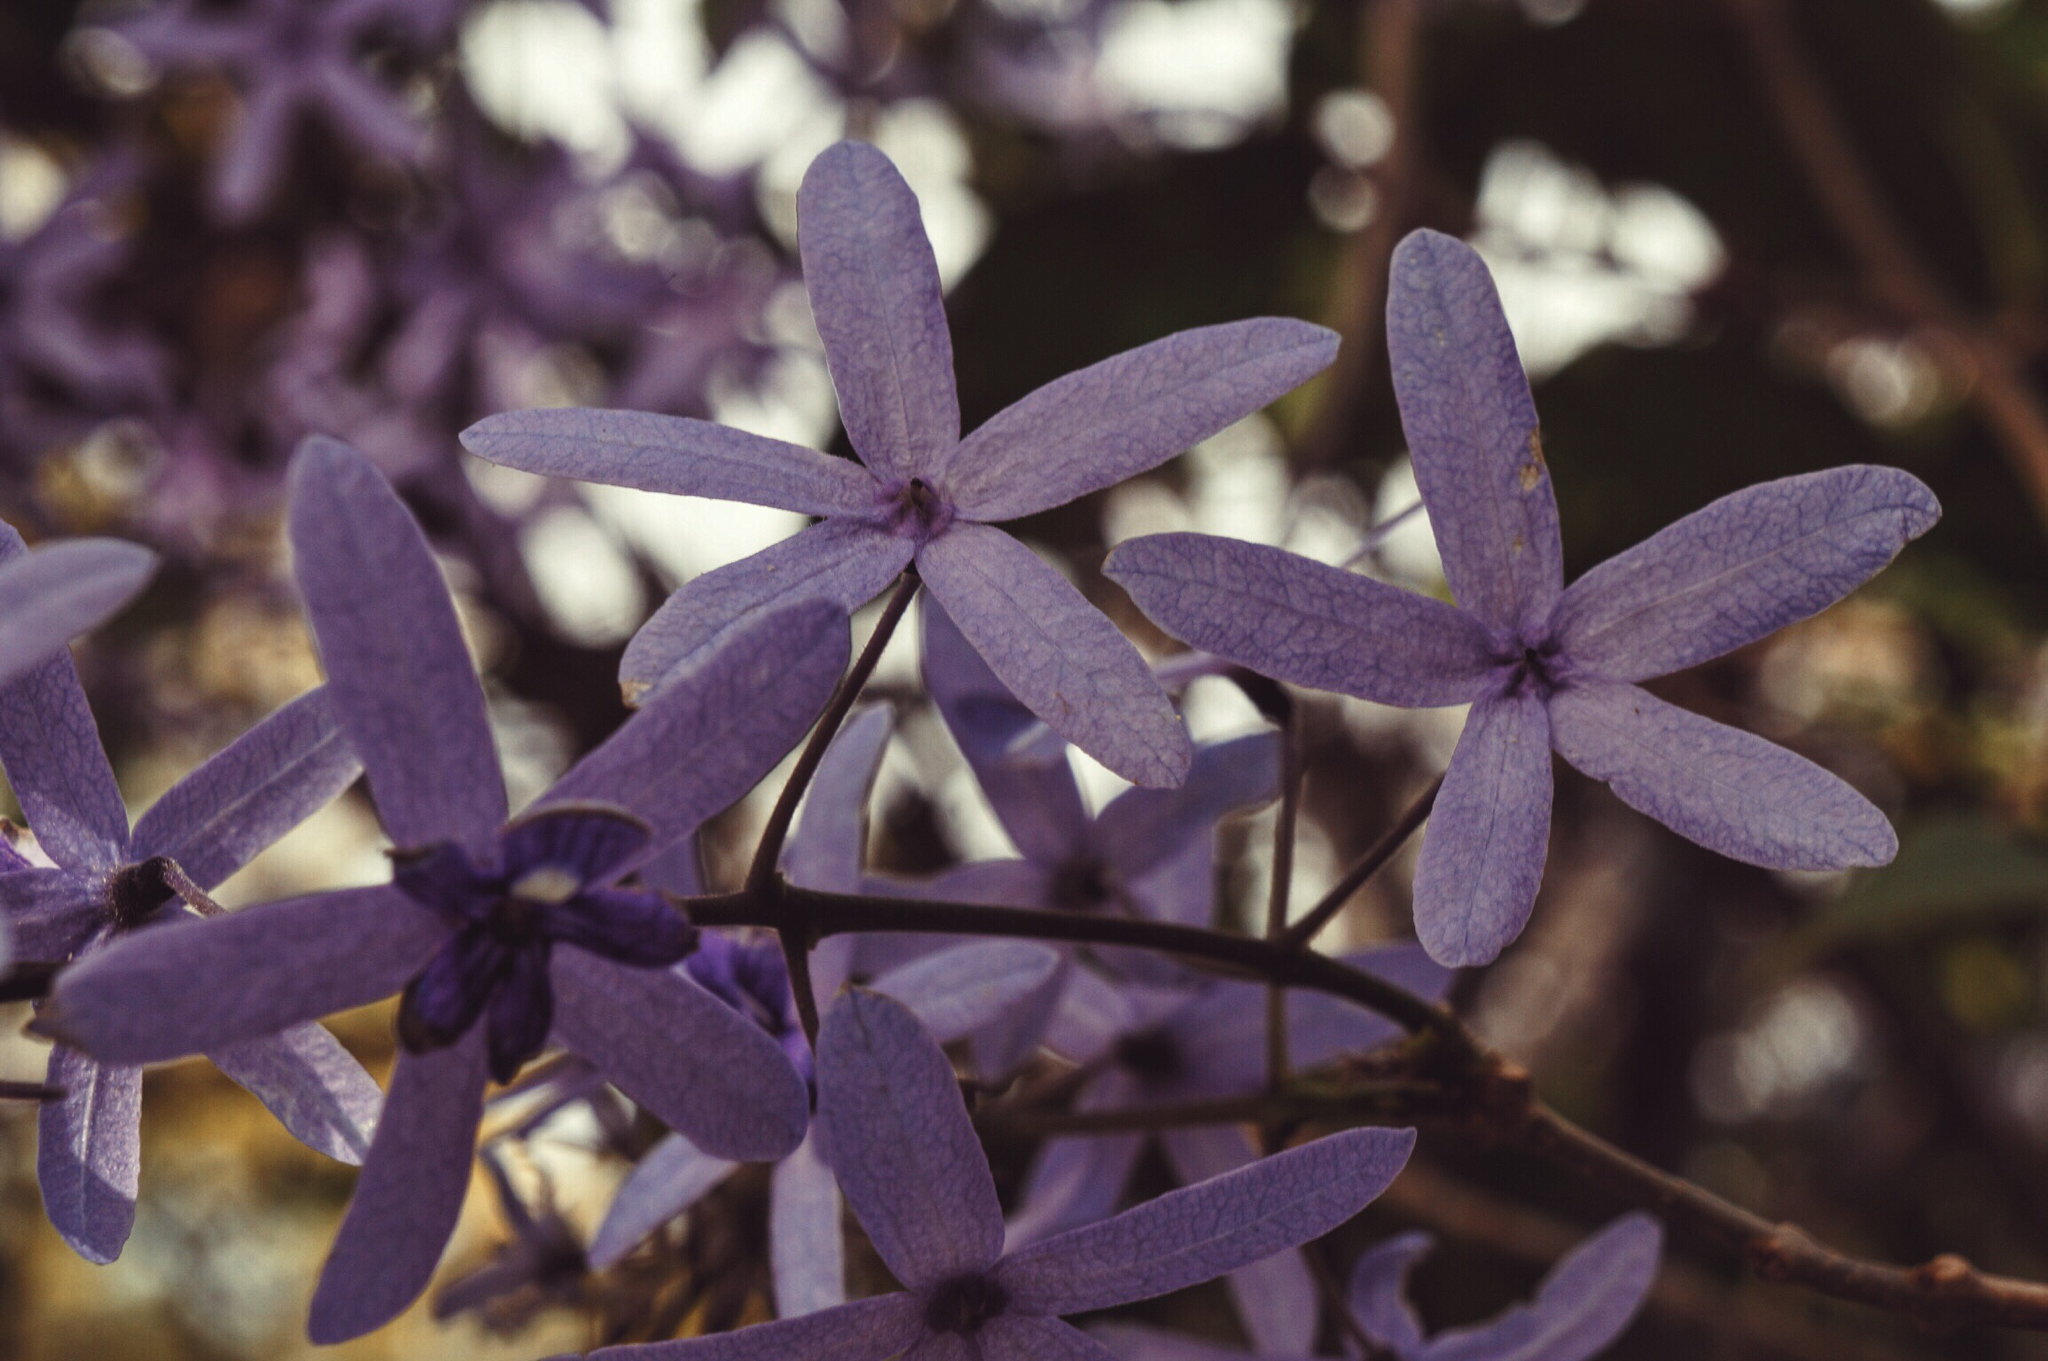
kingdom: Plantae
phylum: Tracheophyta
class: Magnoliopsida
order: Lamiales
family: Verbenaceae
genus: Petrea
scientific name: Petrea volubilis
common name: Queen's-wreath
